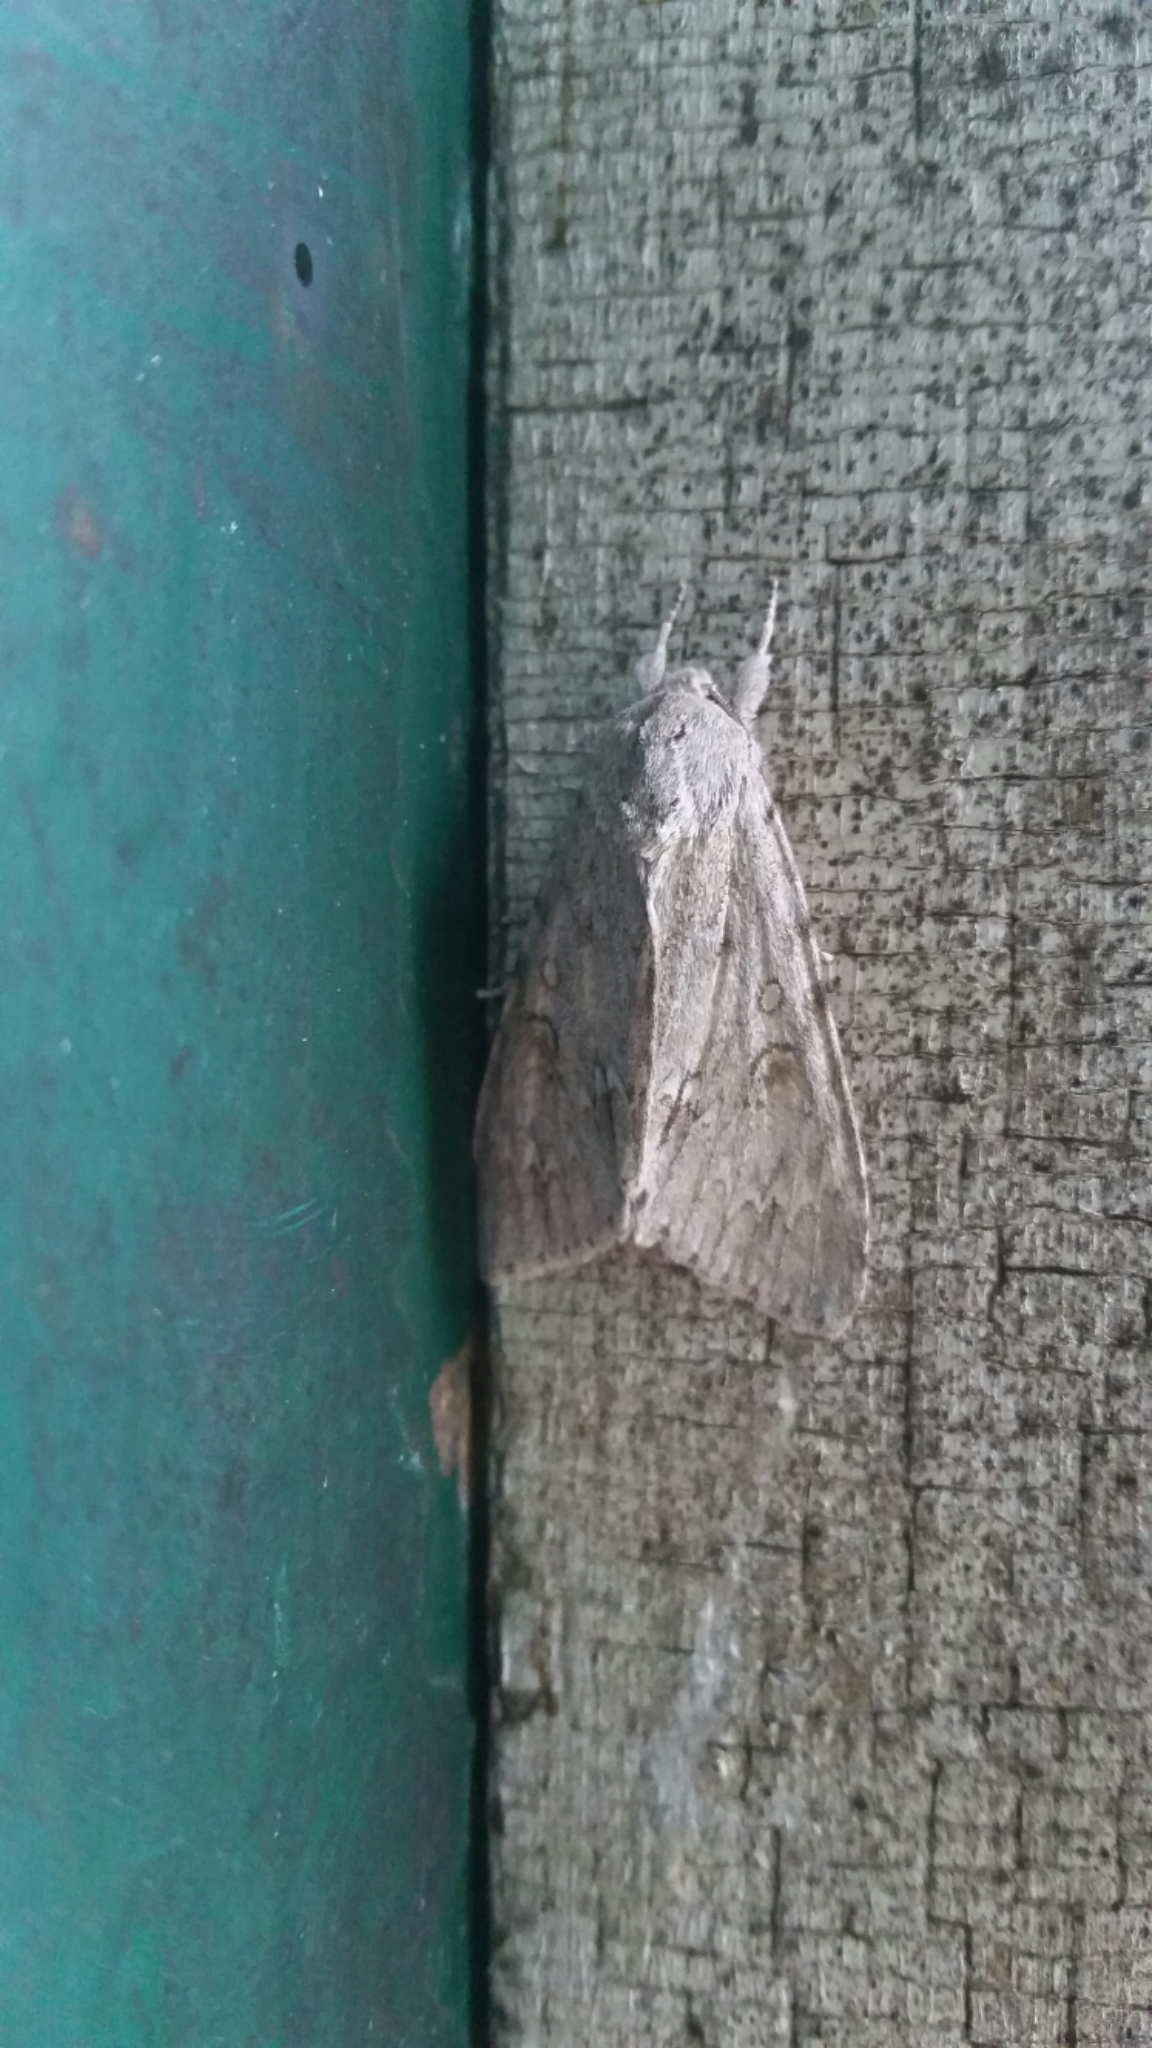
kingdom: Animalia
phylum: Arthropoda
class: Insecta
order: Lepidoptera
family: Noctuidae
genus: Acronicta
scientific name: Acronicta americana
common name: American dagger
